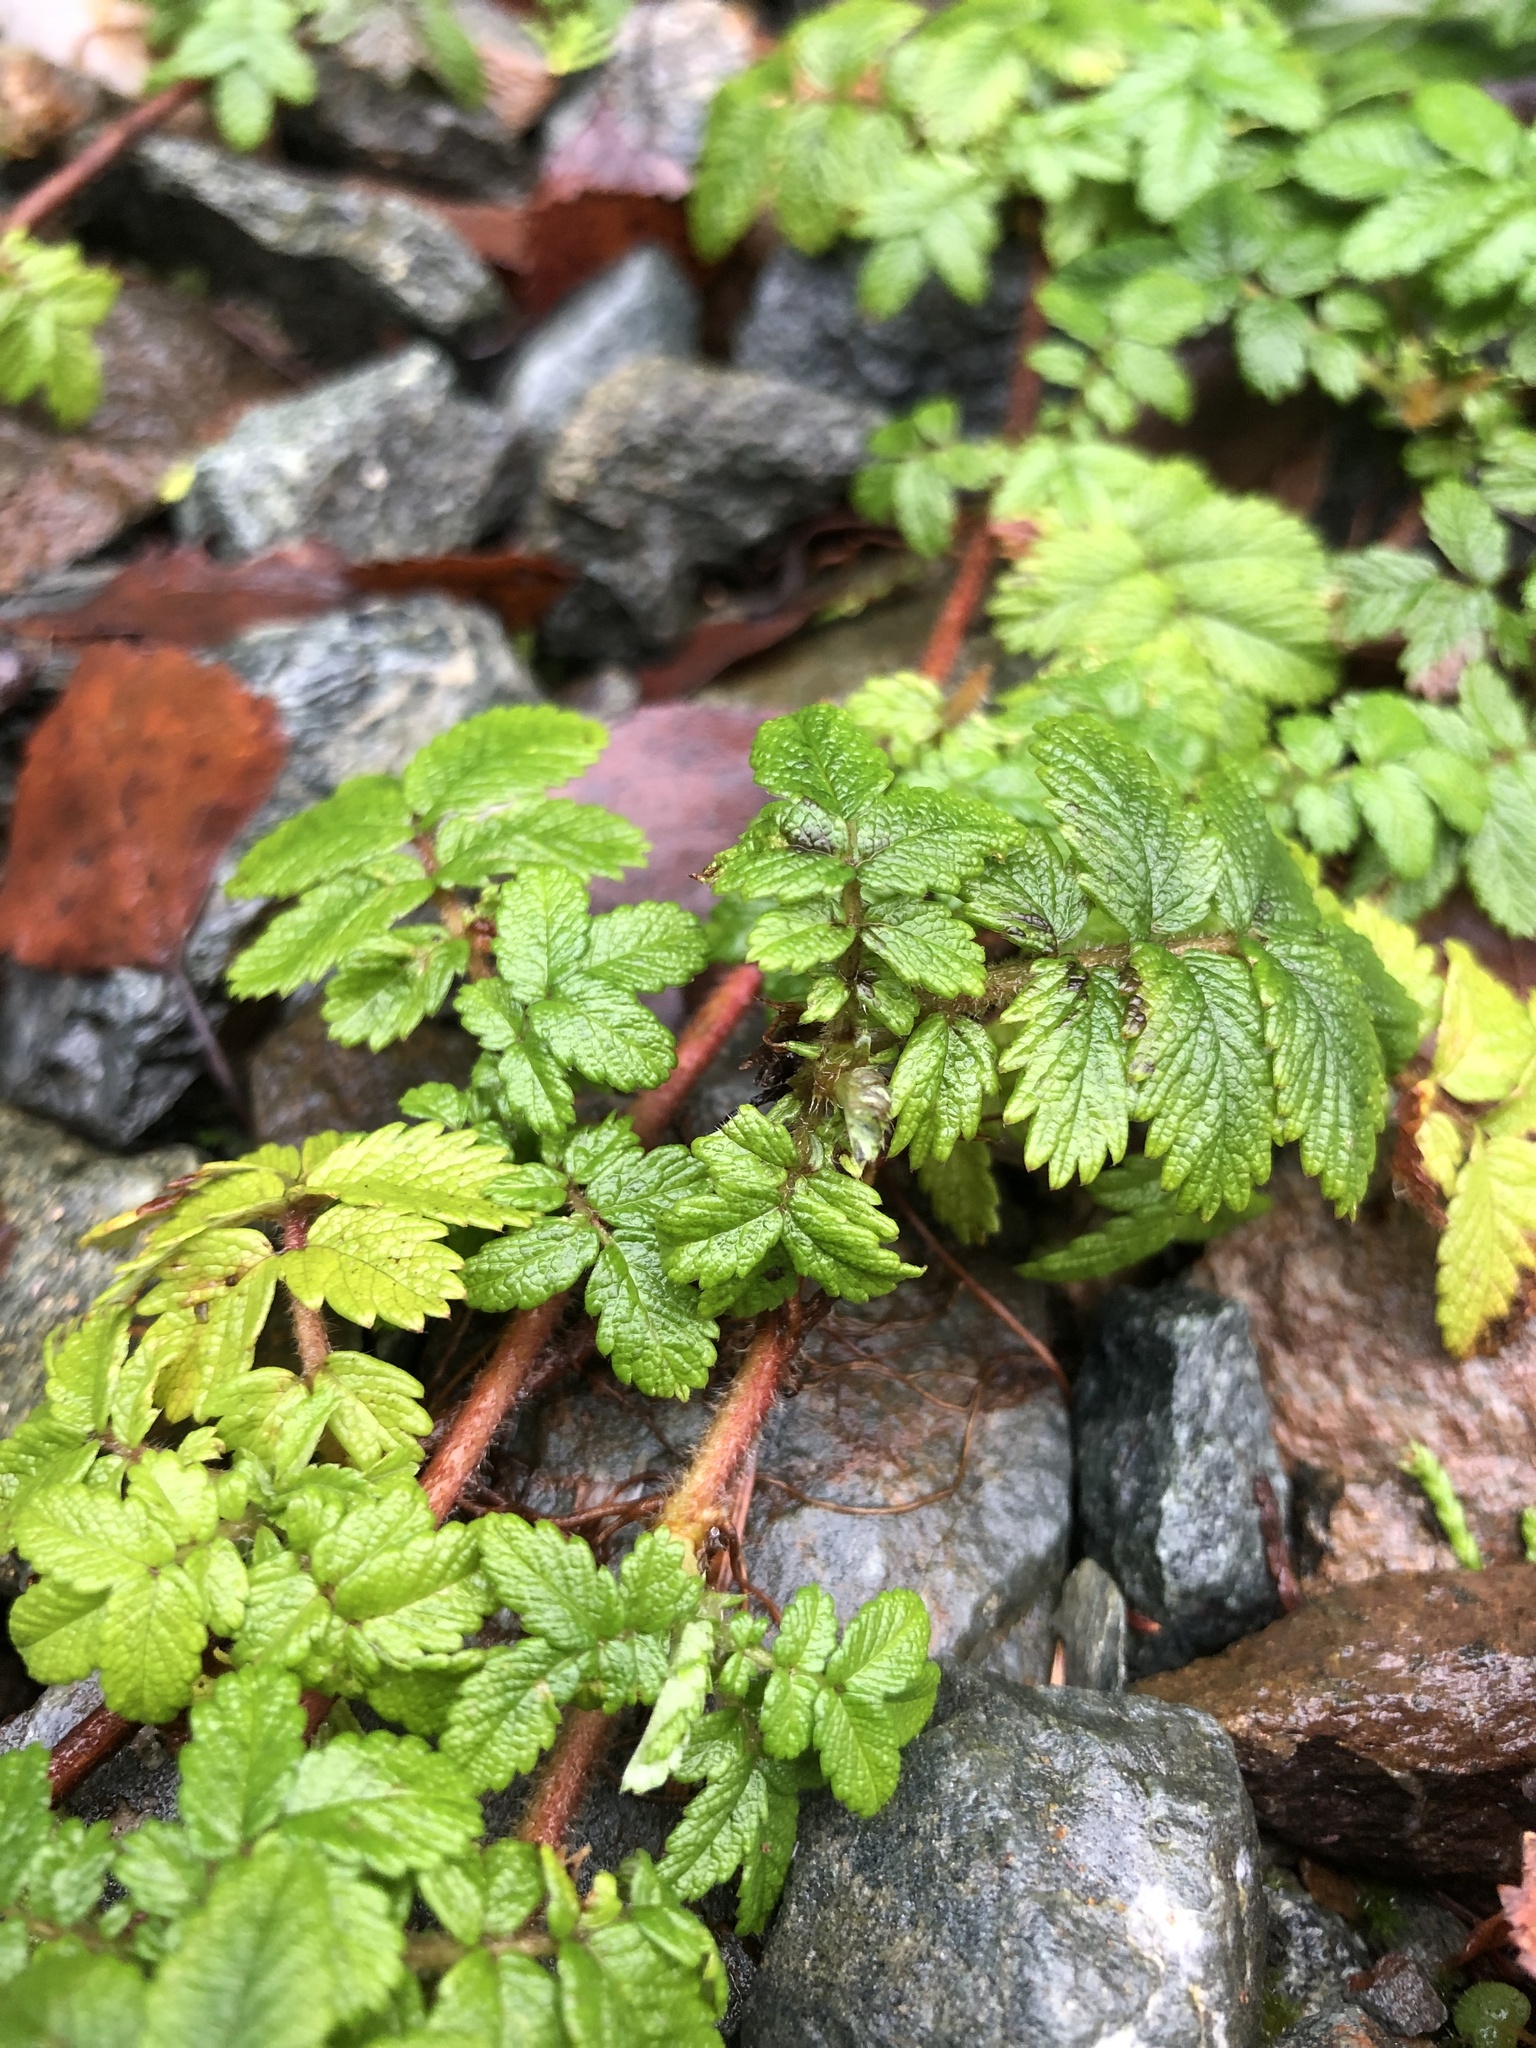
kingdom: Plantae
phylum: Tracheophyta
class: Magnoliopsida
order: Rosales
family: Rosaceae
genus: Acaena
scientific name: Acaena novae-zelandiae
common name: Pirri-pirri-bur
